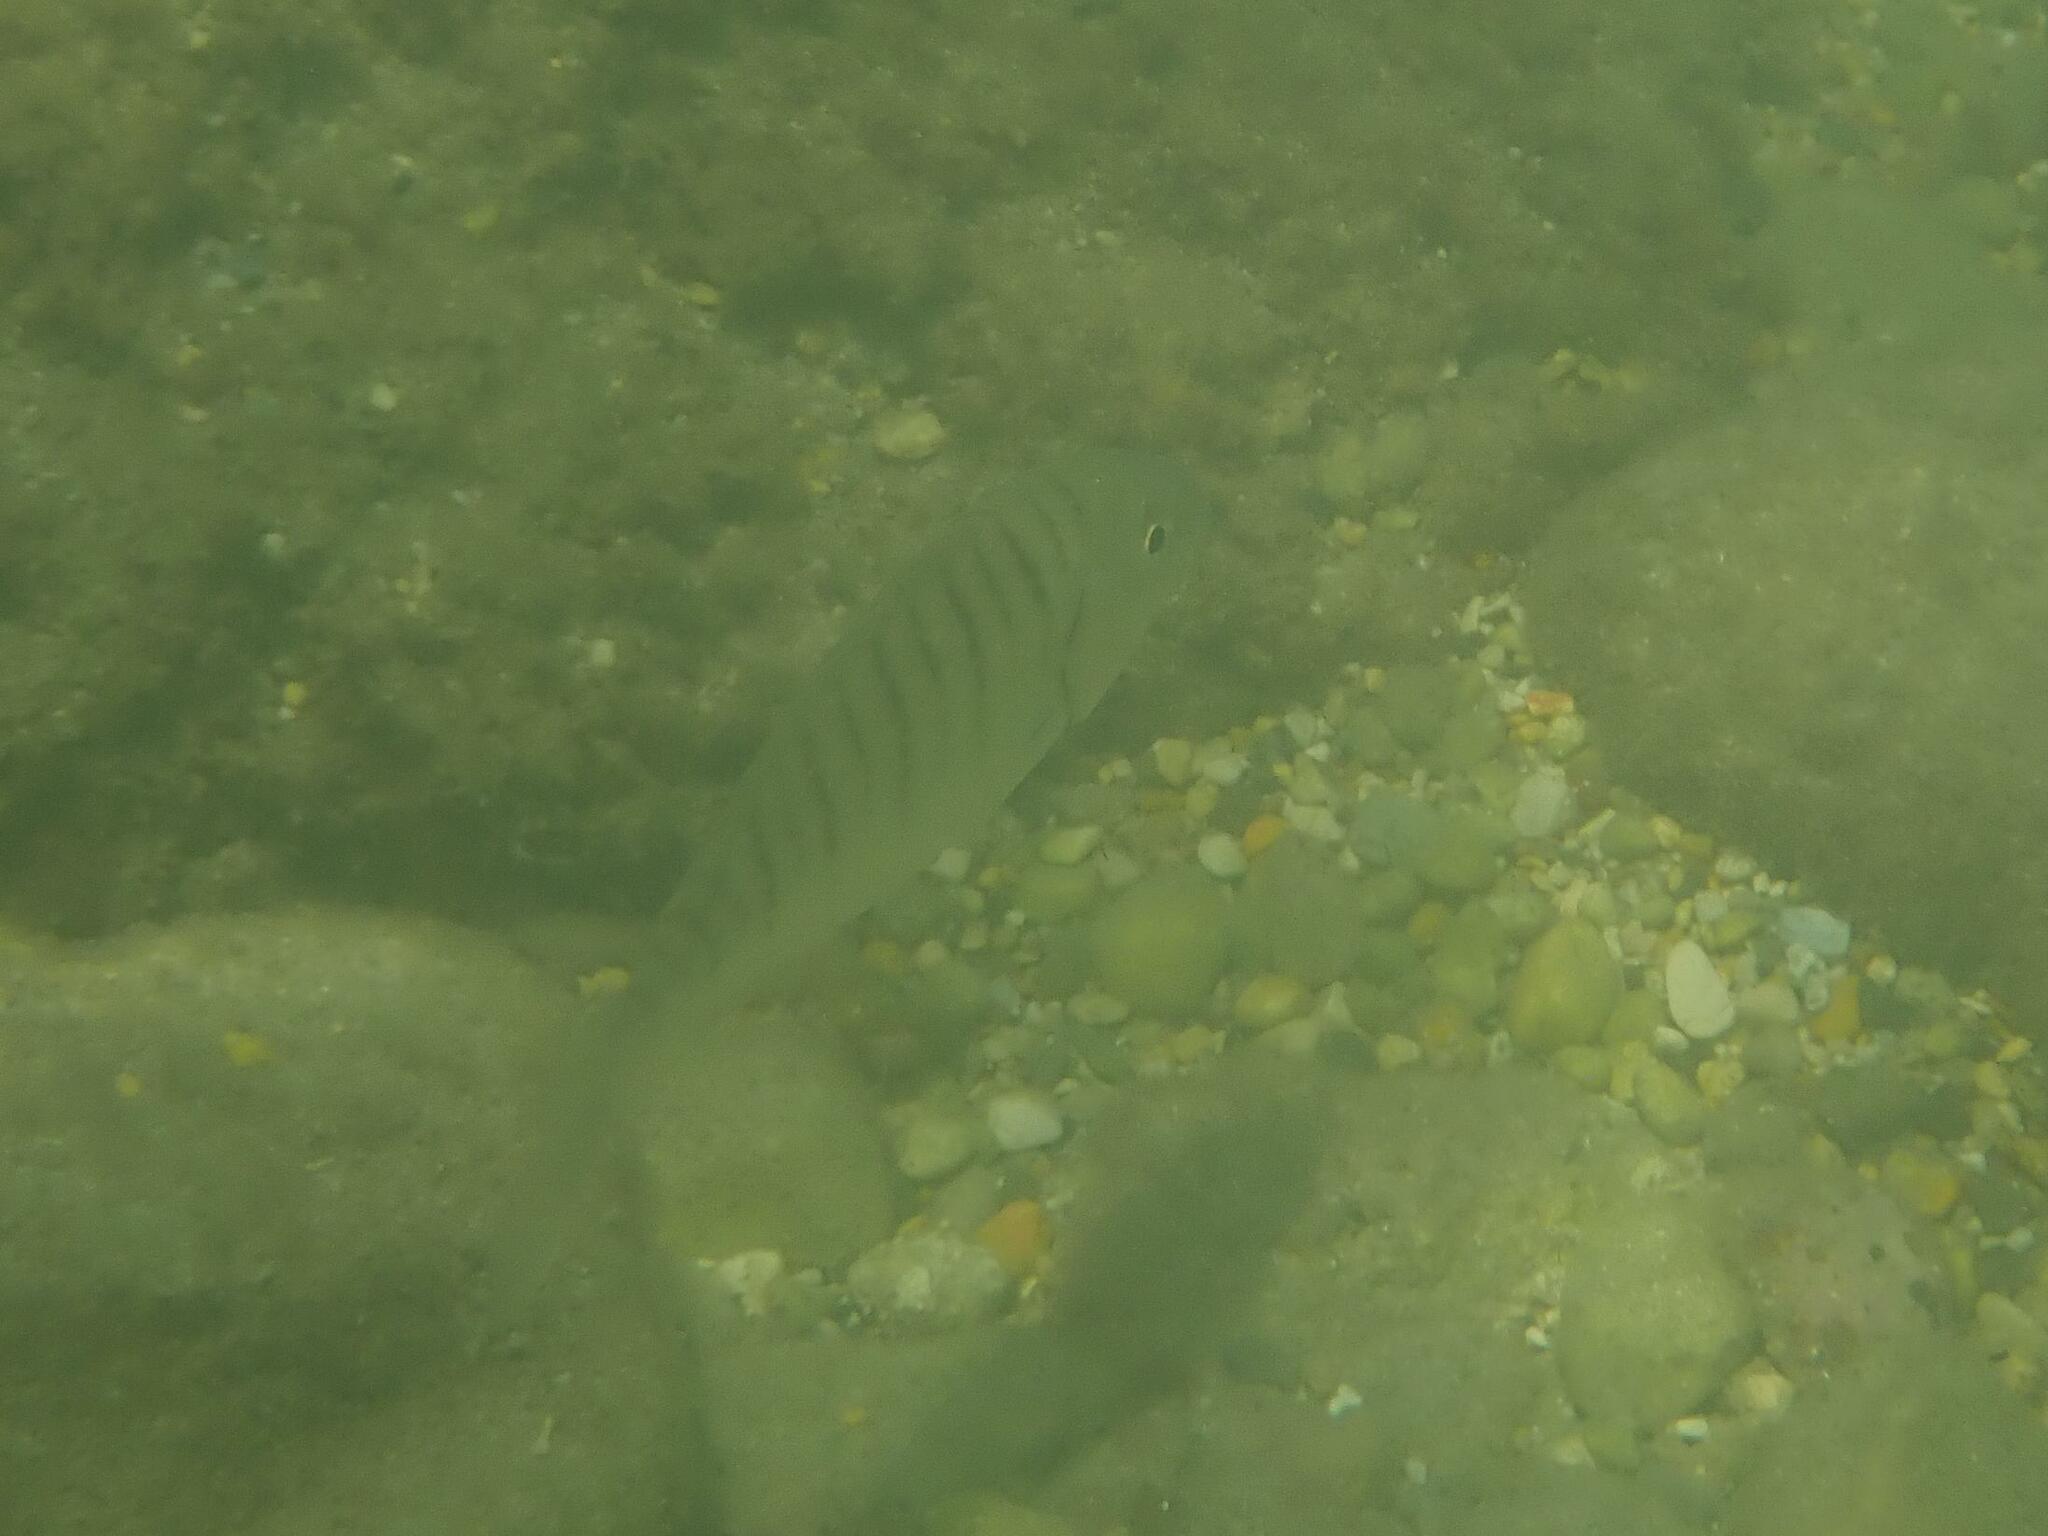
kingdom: Animalia
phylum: Chordata
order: Perciformes
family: Sparidae
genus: Lithognathus
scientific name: Lithognathus mormyrus
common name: Sand steenbras
